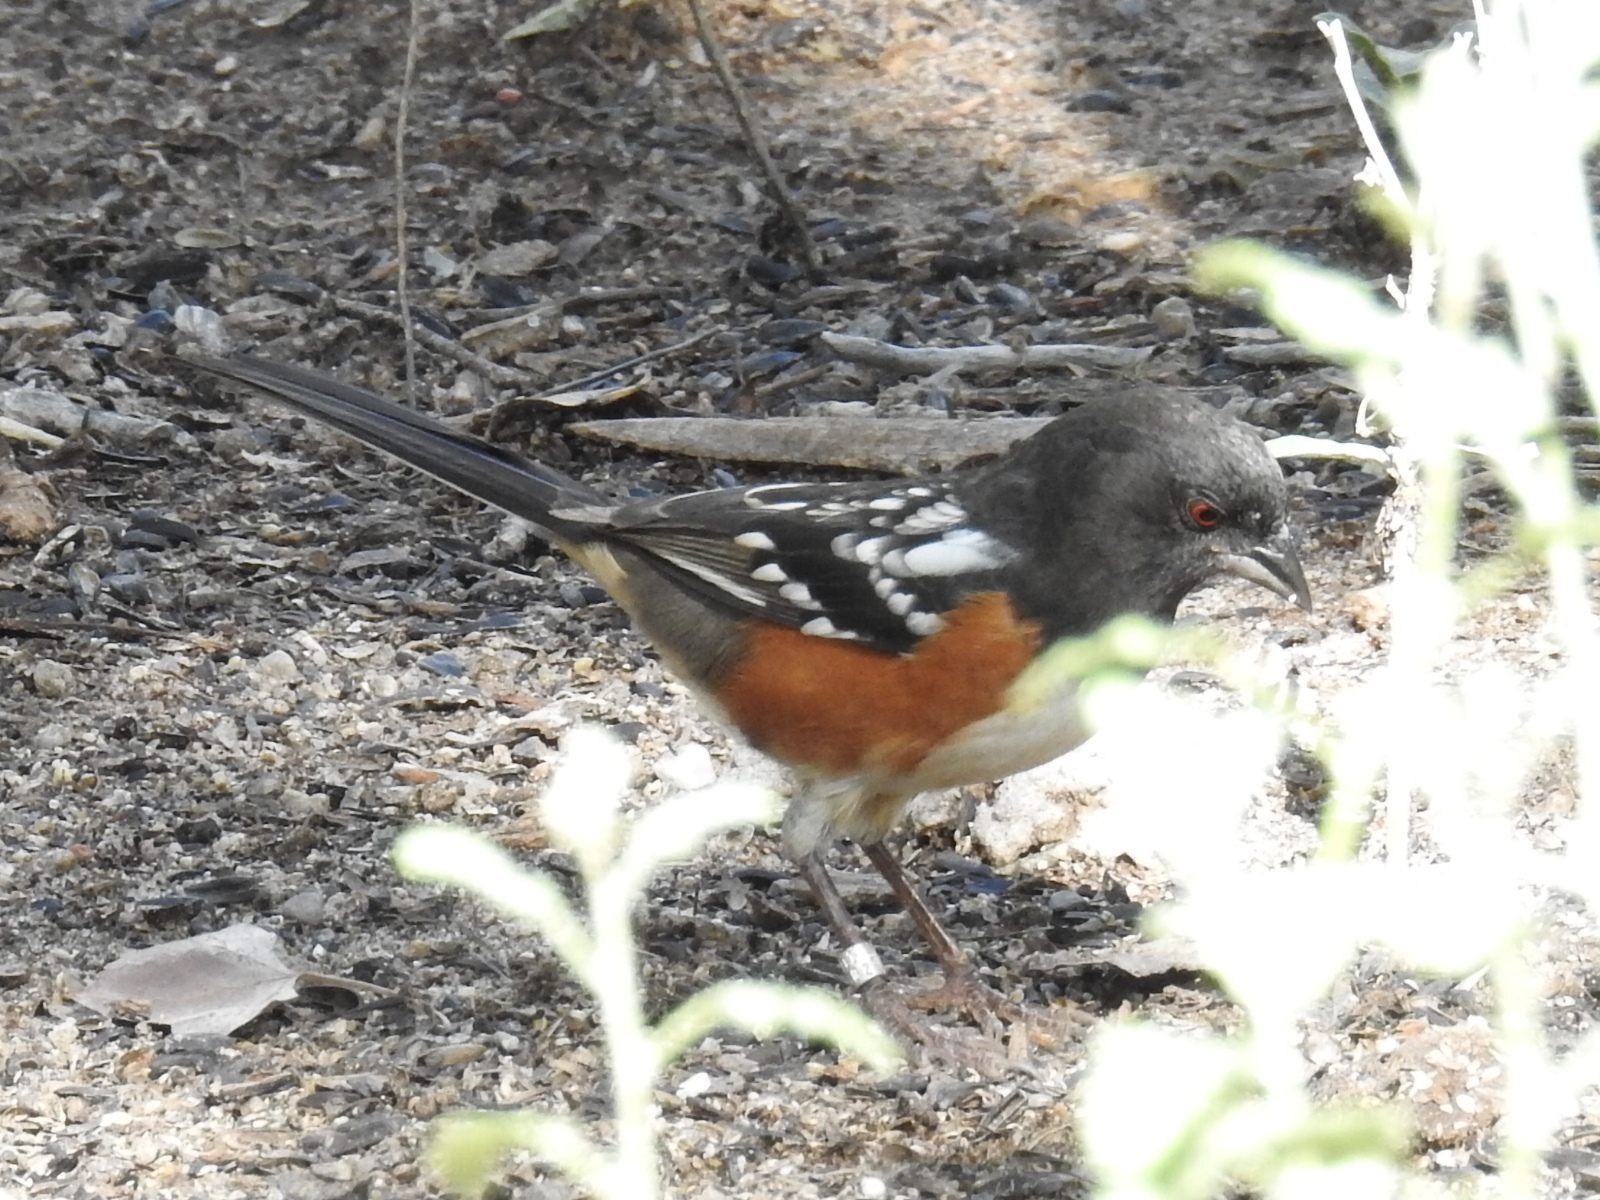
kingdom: Animalia
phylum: Chordata
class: Aves
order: Passeriformes
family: Passerellidae
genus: Pipilo
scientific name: Pipilo maculatus
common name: Spotted towhee
